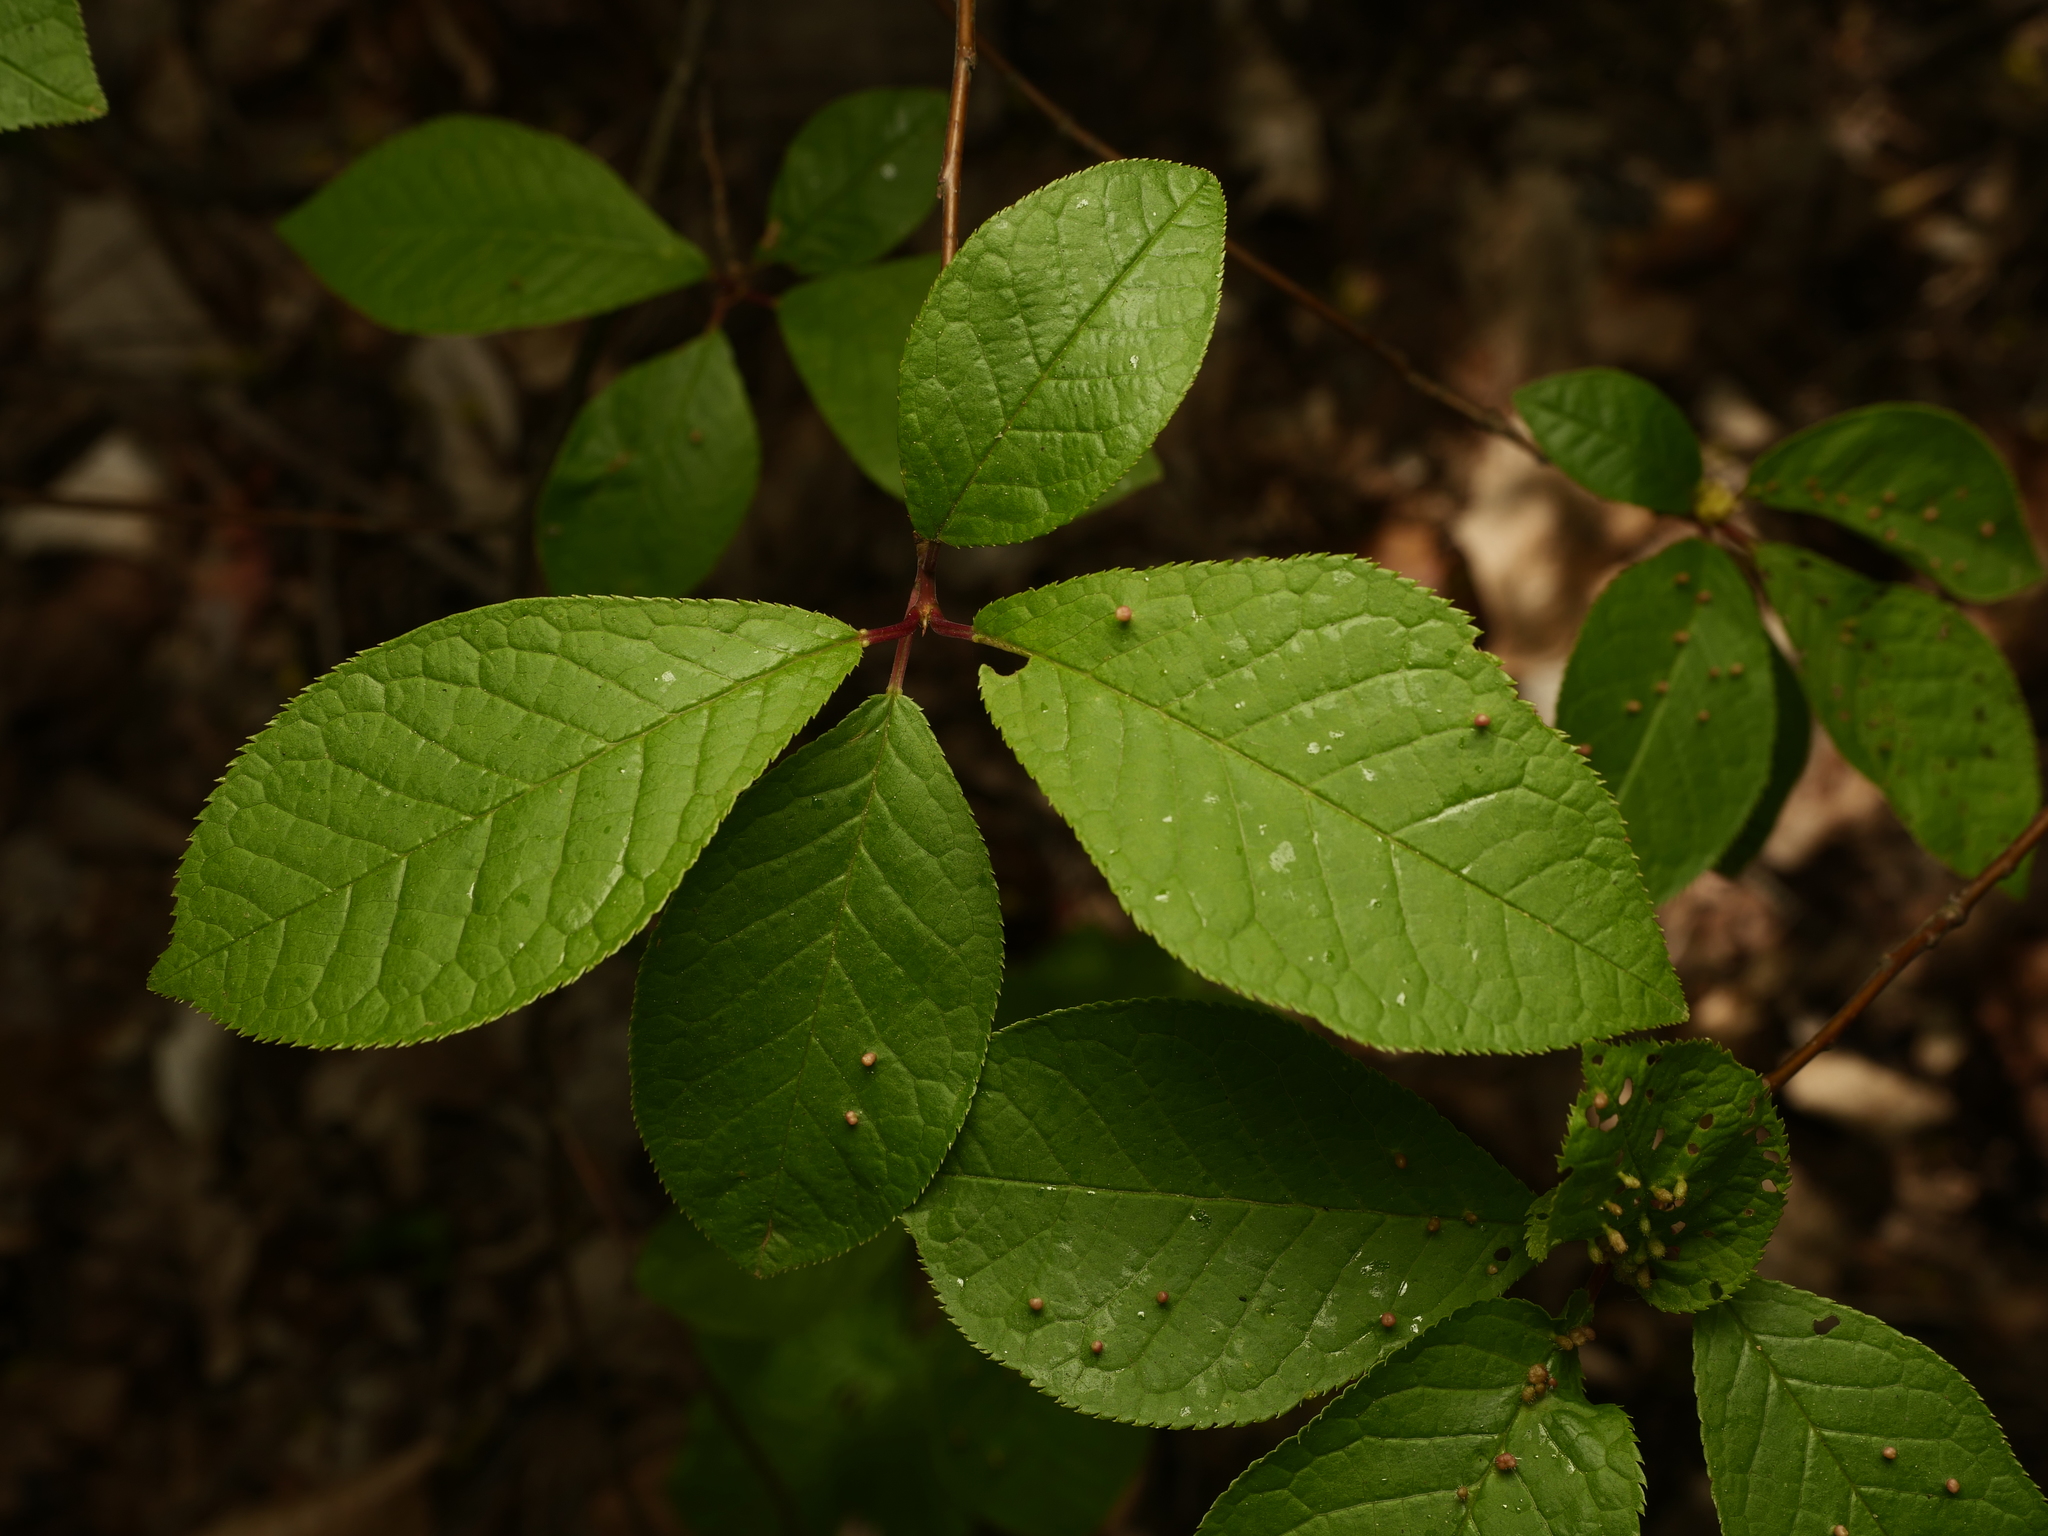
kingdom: Plantae
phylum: Tracheophyta
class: Magnoliopsida
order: Rosales
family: Rosaceae
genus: Prunus
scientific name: Prunus padus
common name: Bird cherry
